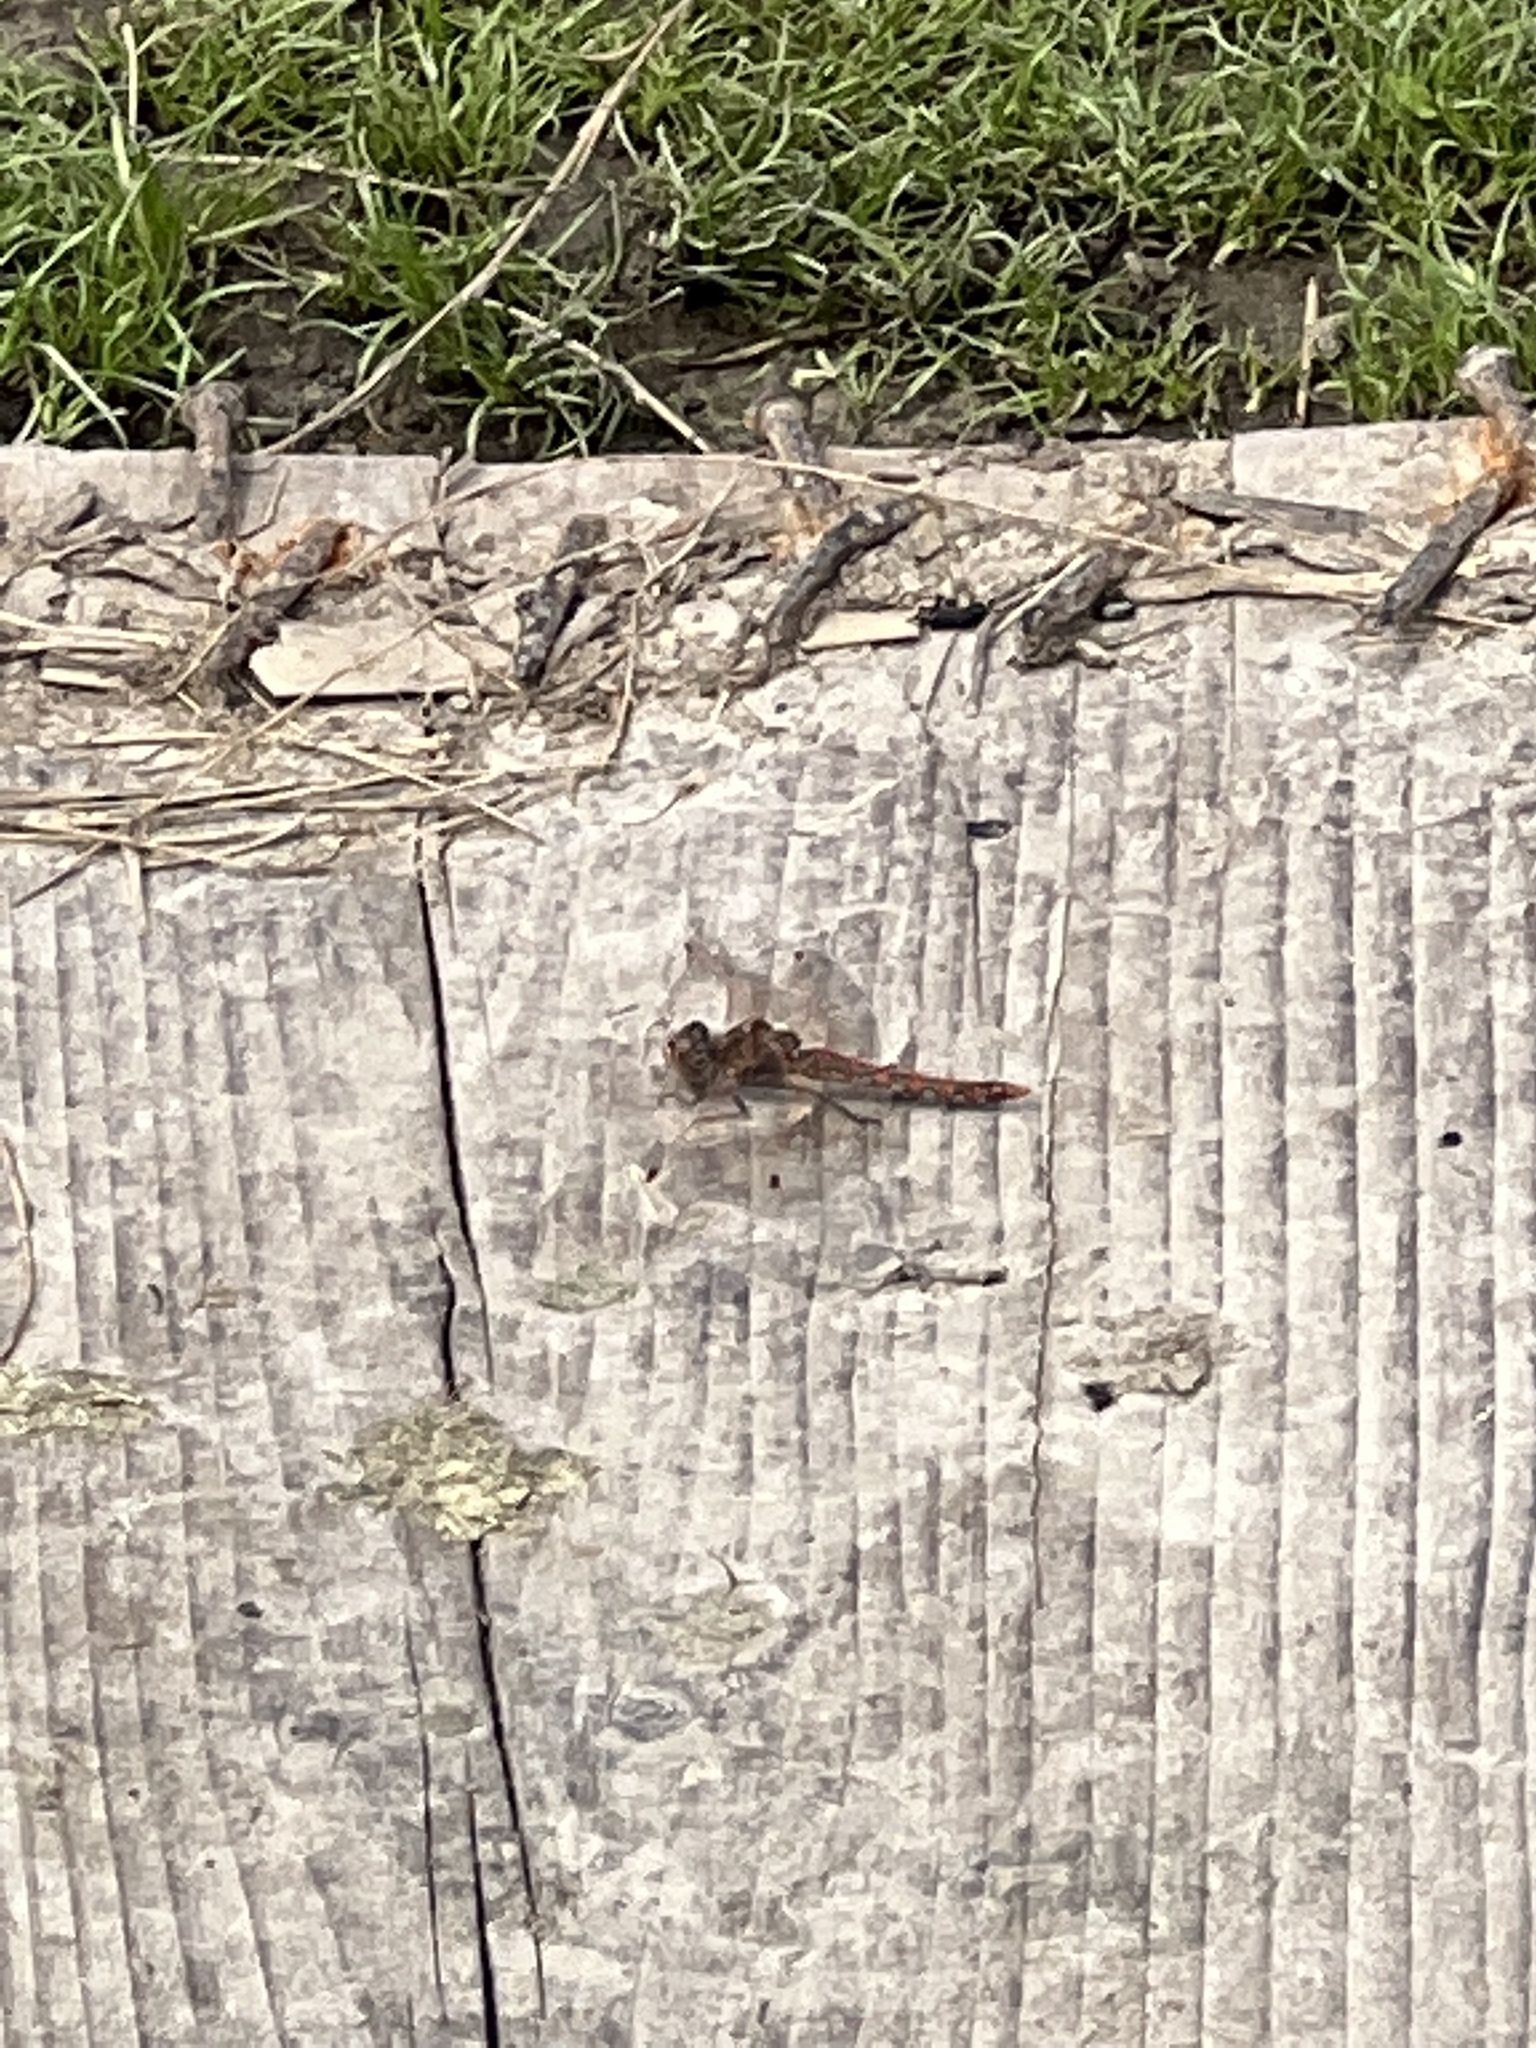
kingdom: Animalia
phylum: Arthropoda
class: Insecta
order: Odonata
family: Libellulidae
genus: Sympetrum
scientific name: Sympetrum corruptum
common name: Variegated meadowhawk
